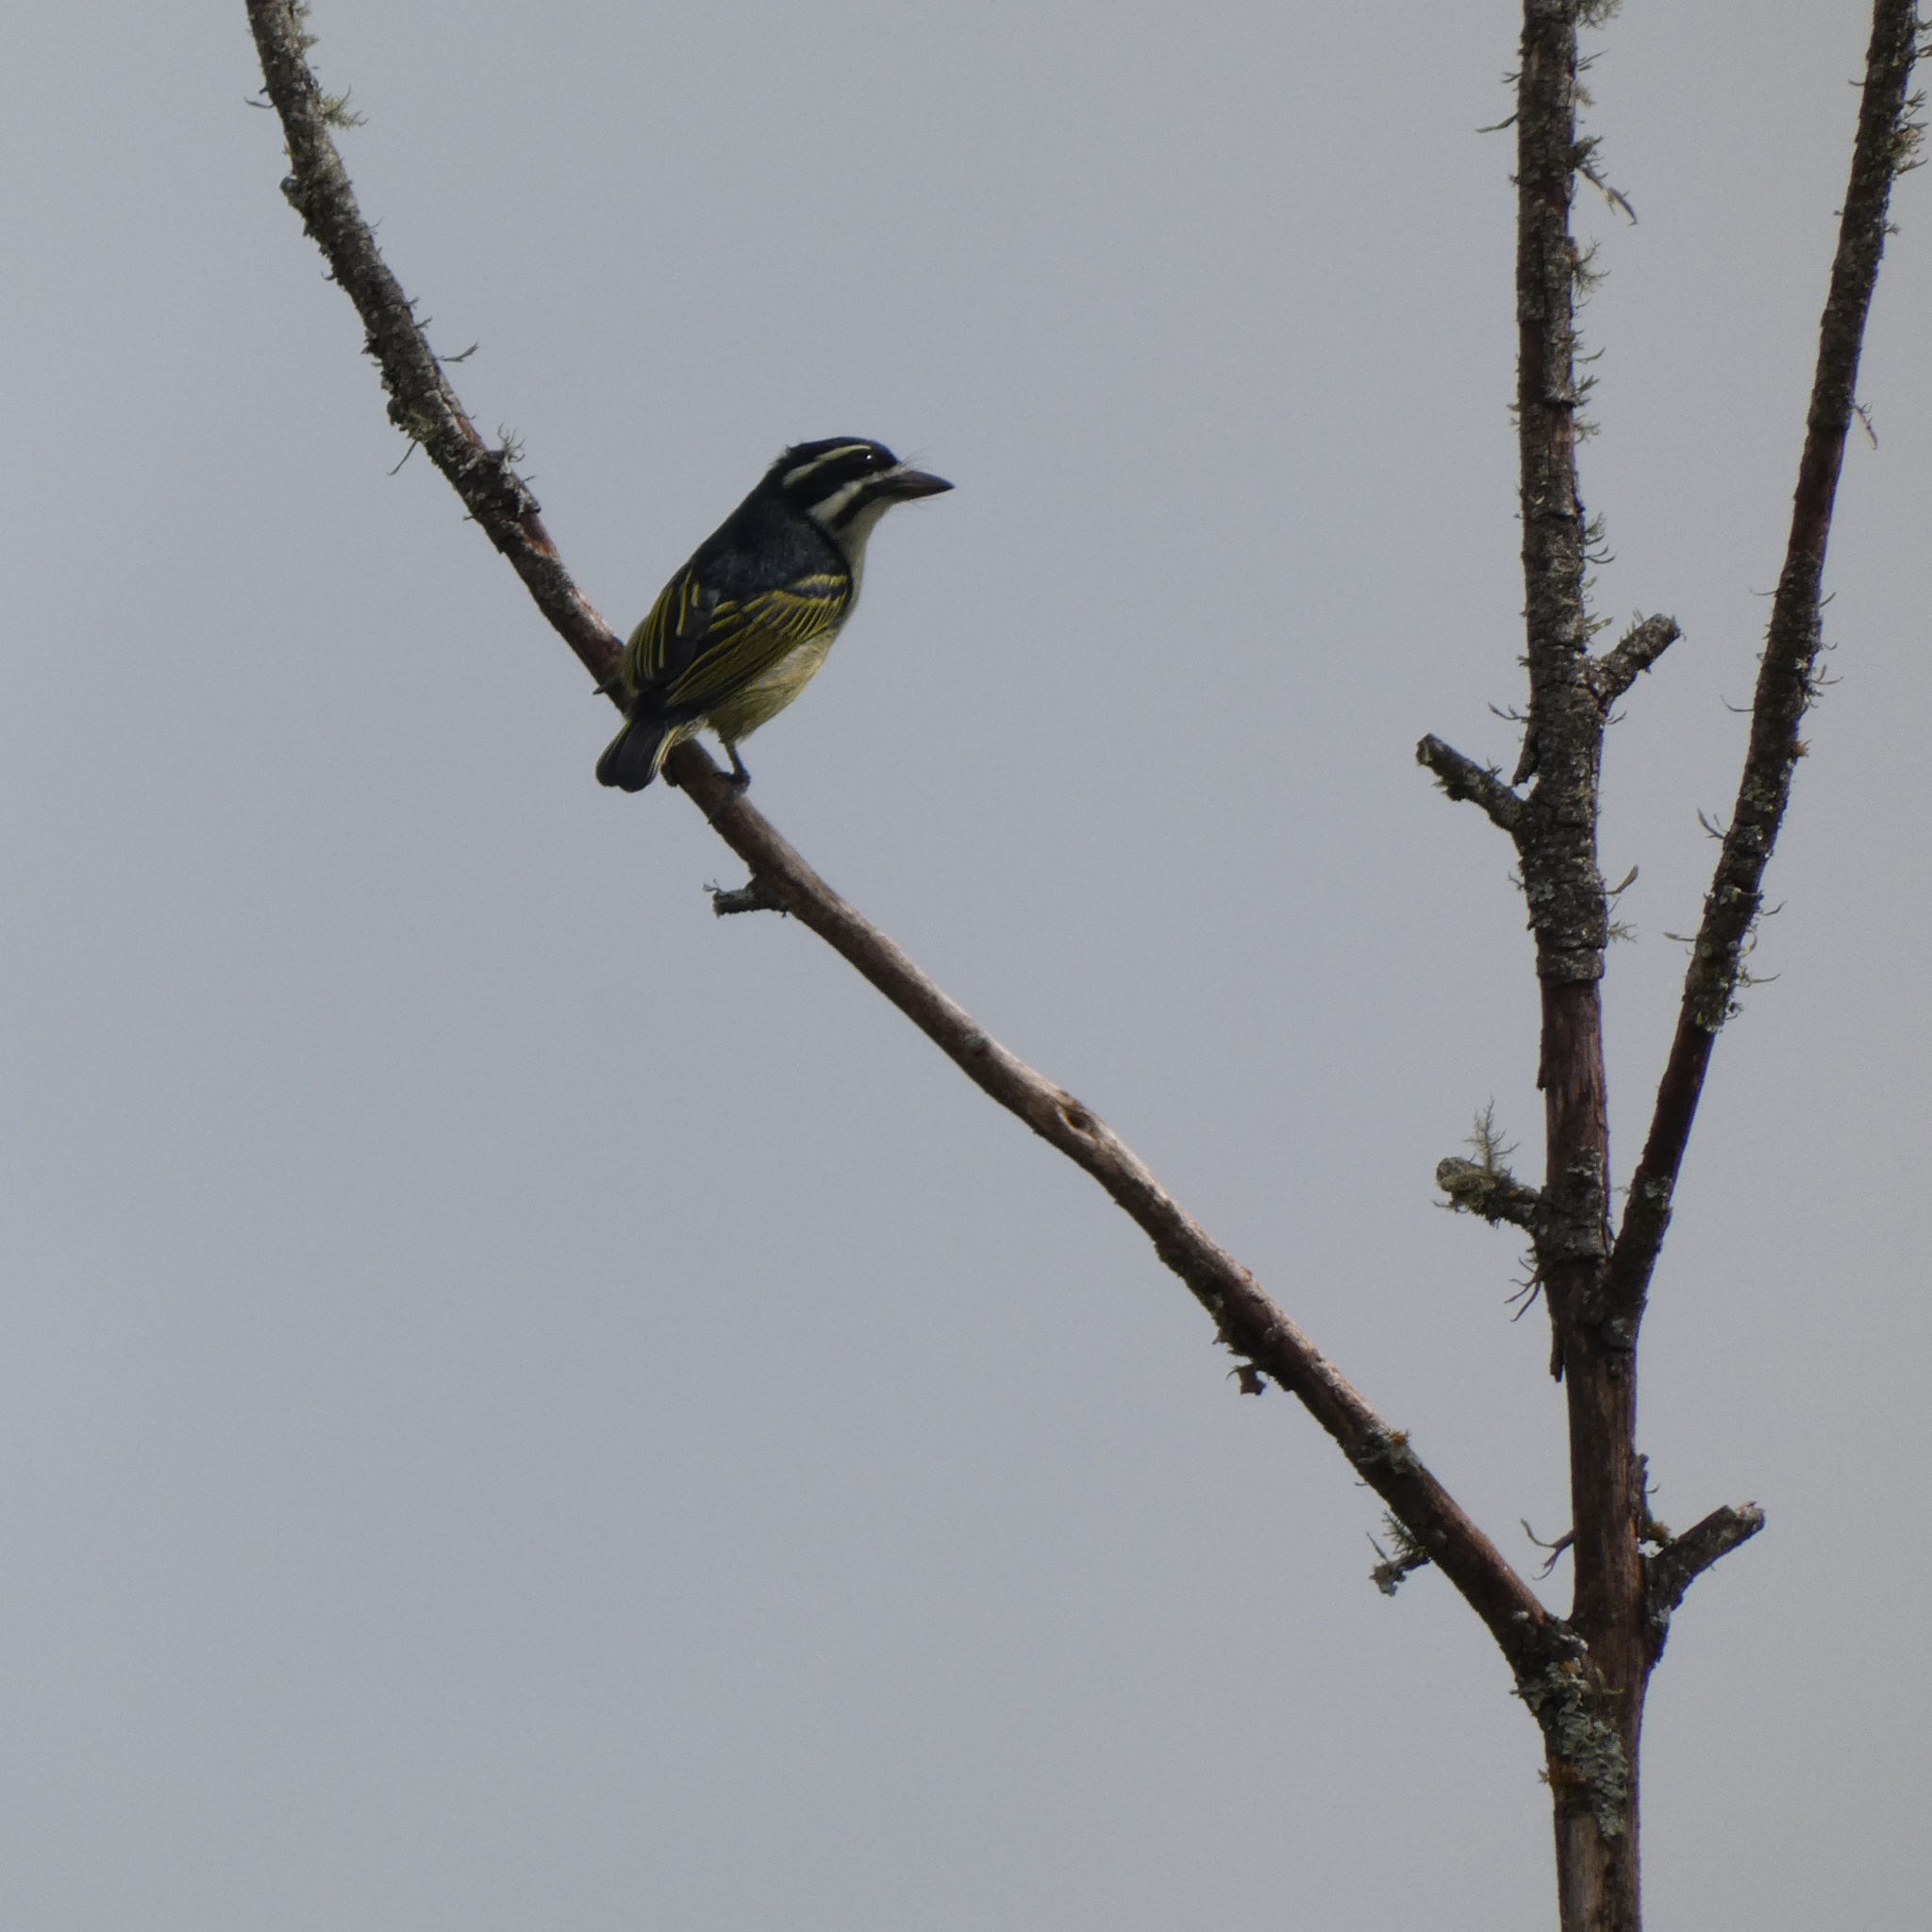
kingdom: Animalia
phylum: Chordata
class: Aves
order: Piciformes
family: Lybiidae
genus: Pogoniulus
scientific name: Pogoniulus bilineatus
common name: Yellow-rumped tinkerbird
